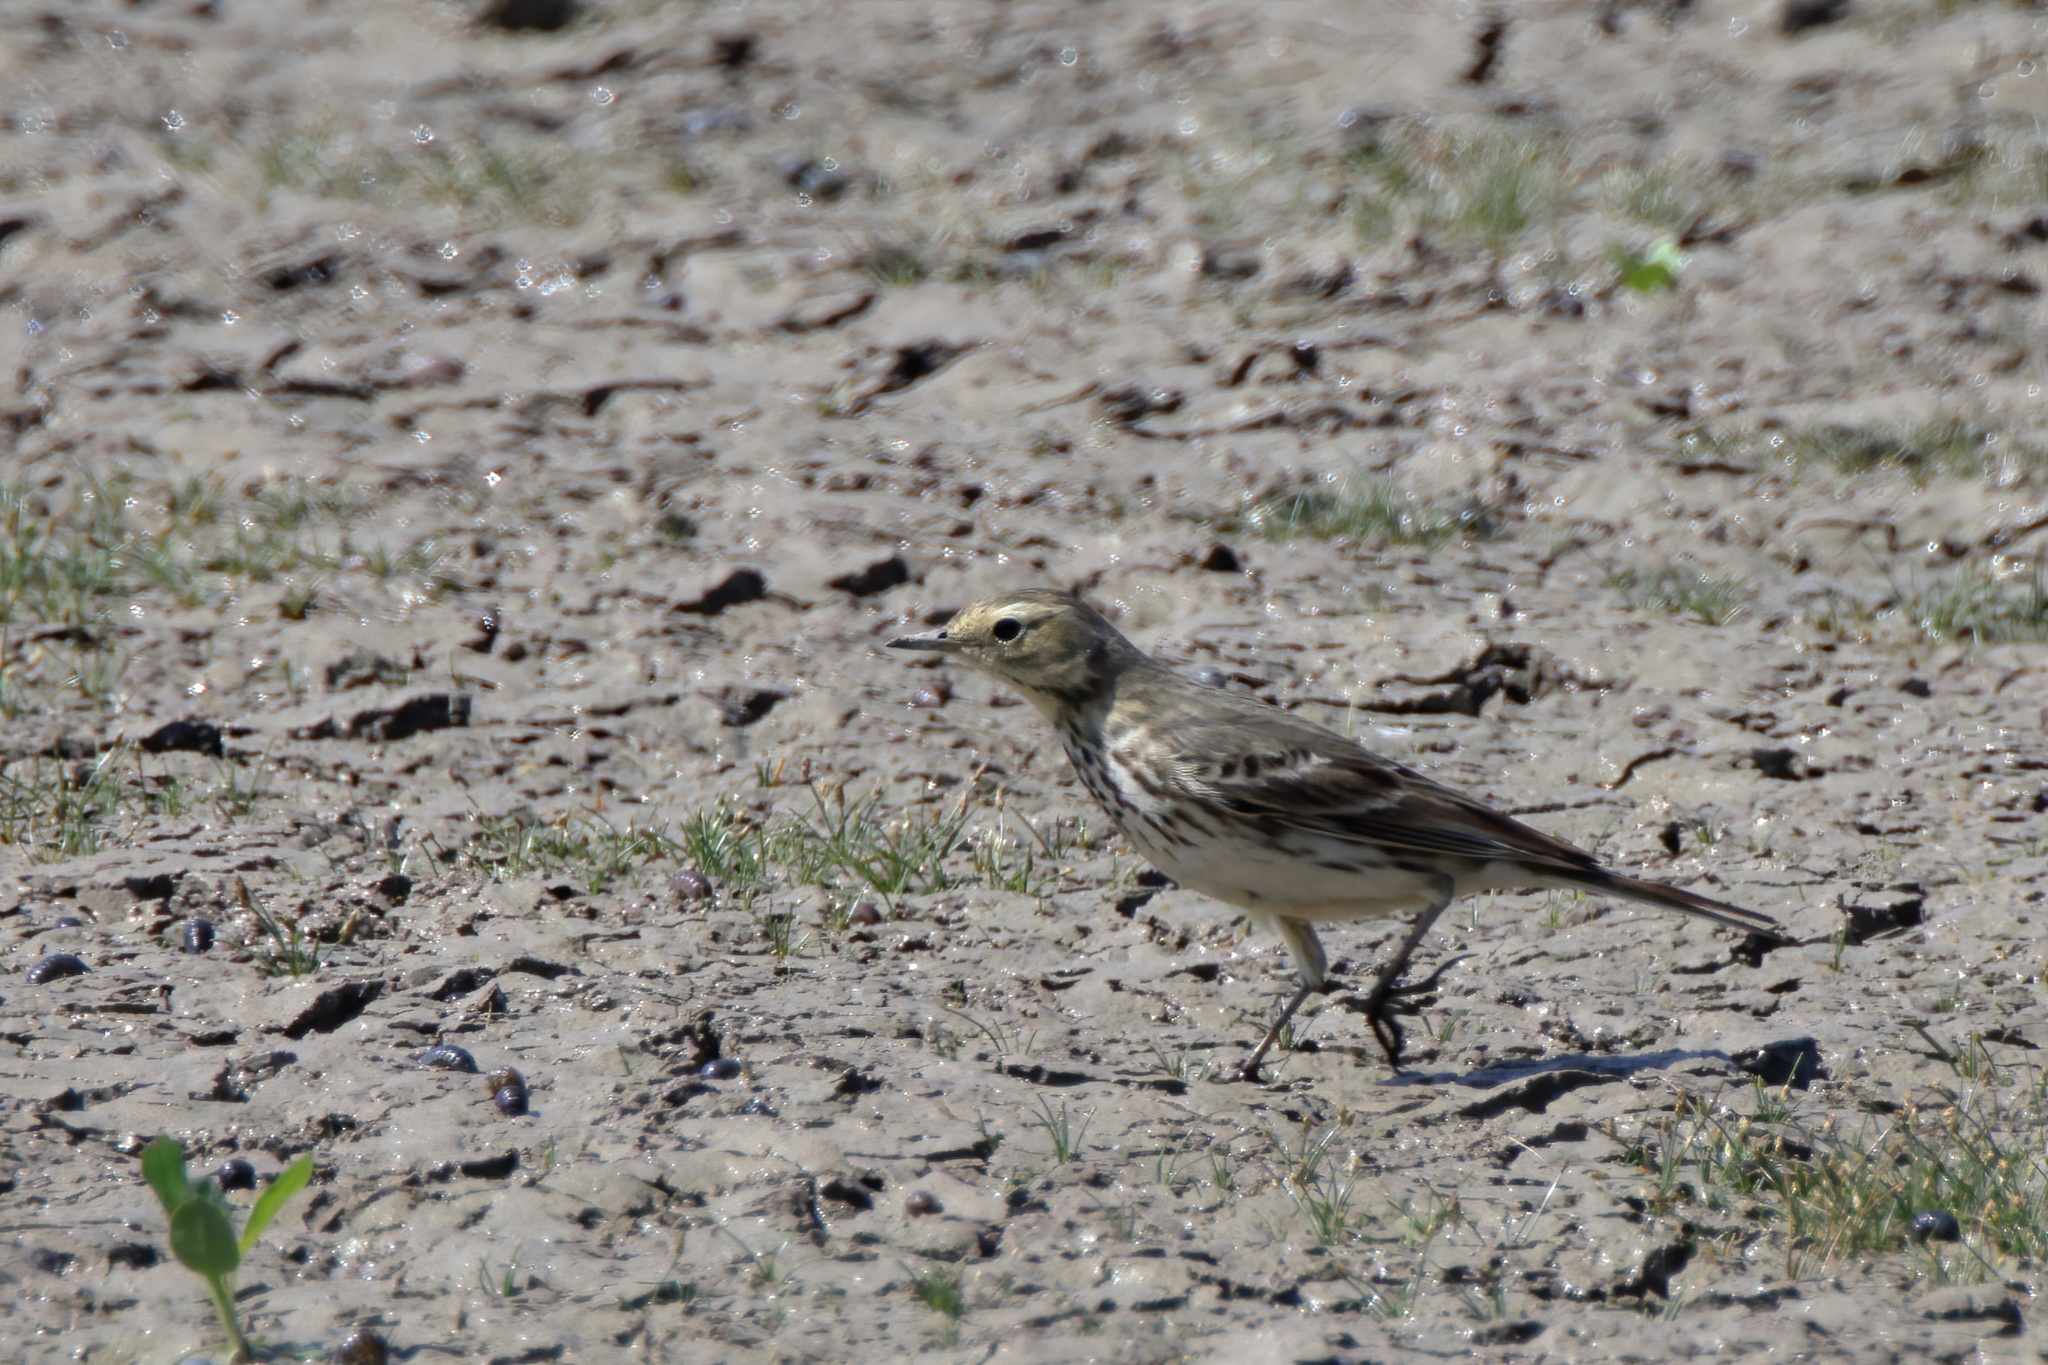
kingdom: Animalia
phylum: Chordata
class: Aves
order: Passeriformes
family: Motacillidae
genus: Anthus
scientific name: Anthus rubescens
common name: Buff-bellied pipit
